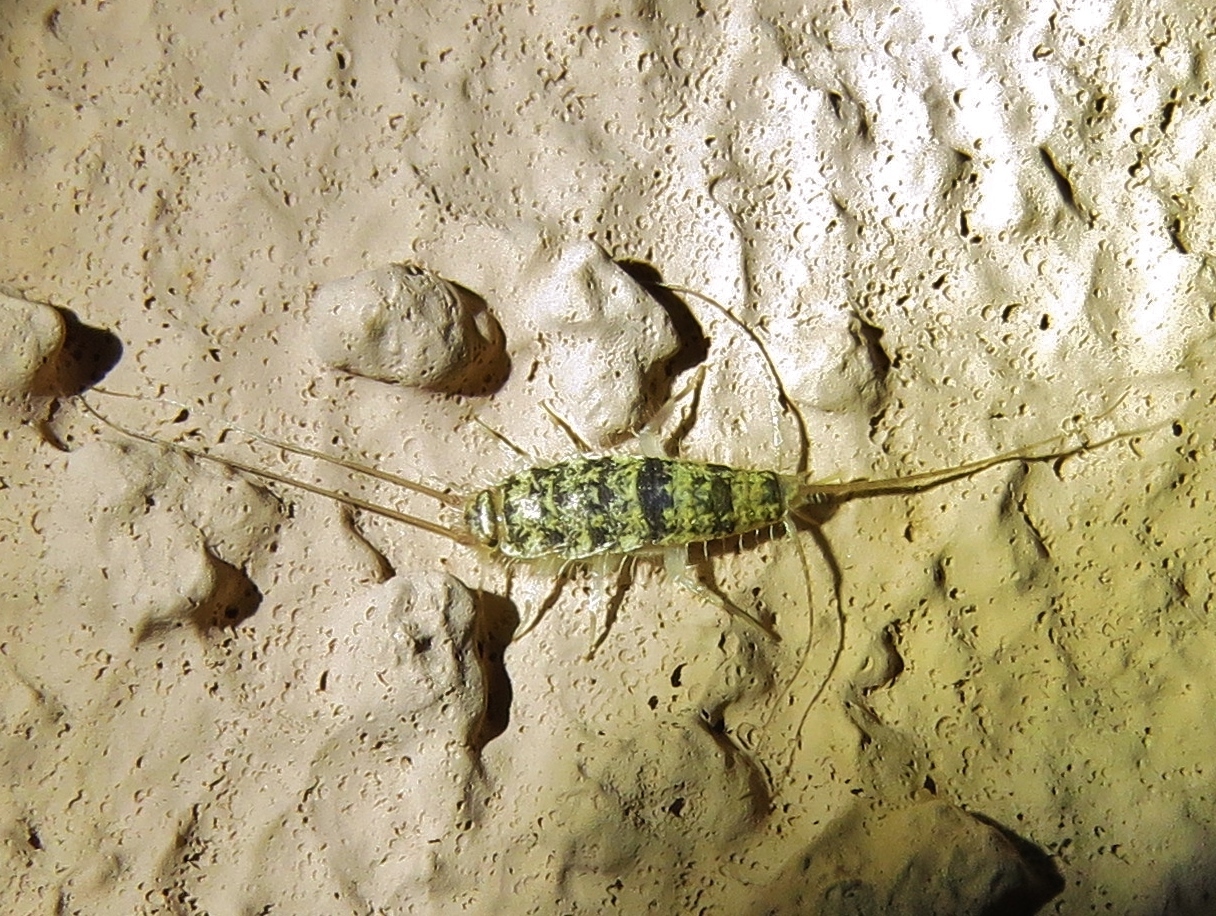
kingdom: Animalia
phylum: Arthropoda
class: Insecta
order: Zygentoma
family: Lepismatidae
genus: Thermobia
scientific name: Thermobia domestica
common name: Firebrat
